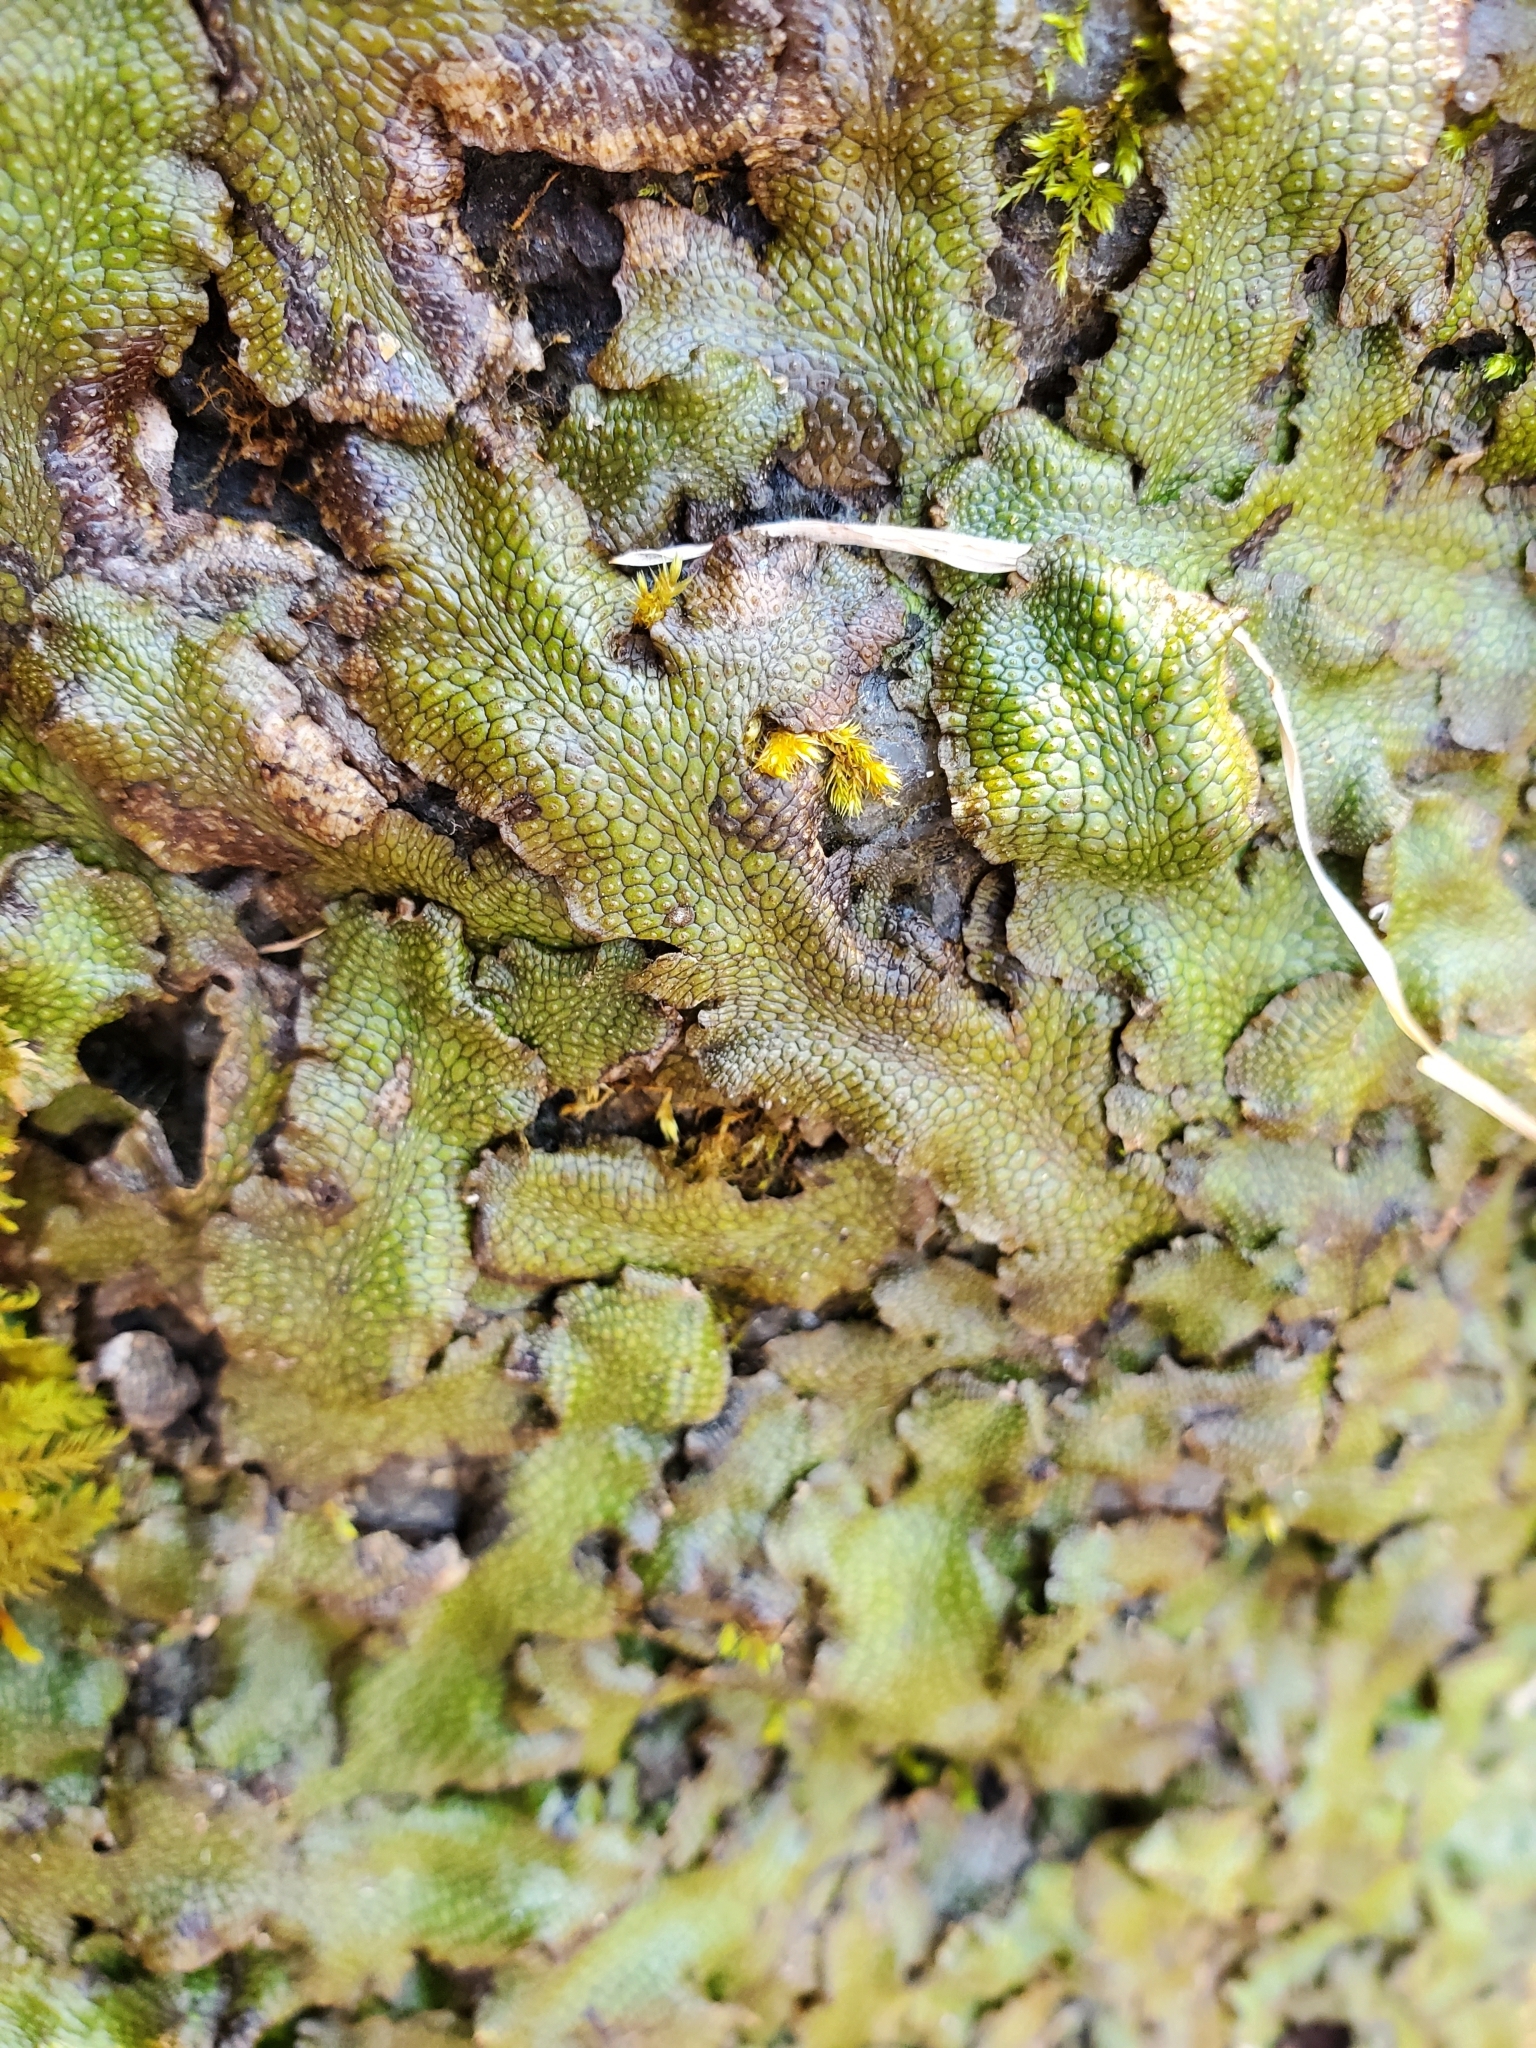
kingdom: Plantae
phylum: Marchantiophyta
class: Marchantiopsida
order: Marchantiales
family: Conocephalaceae
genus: Conocephalum
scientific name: Conocephalum salebrosum
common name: Cat-tongue liverwort
